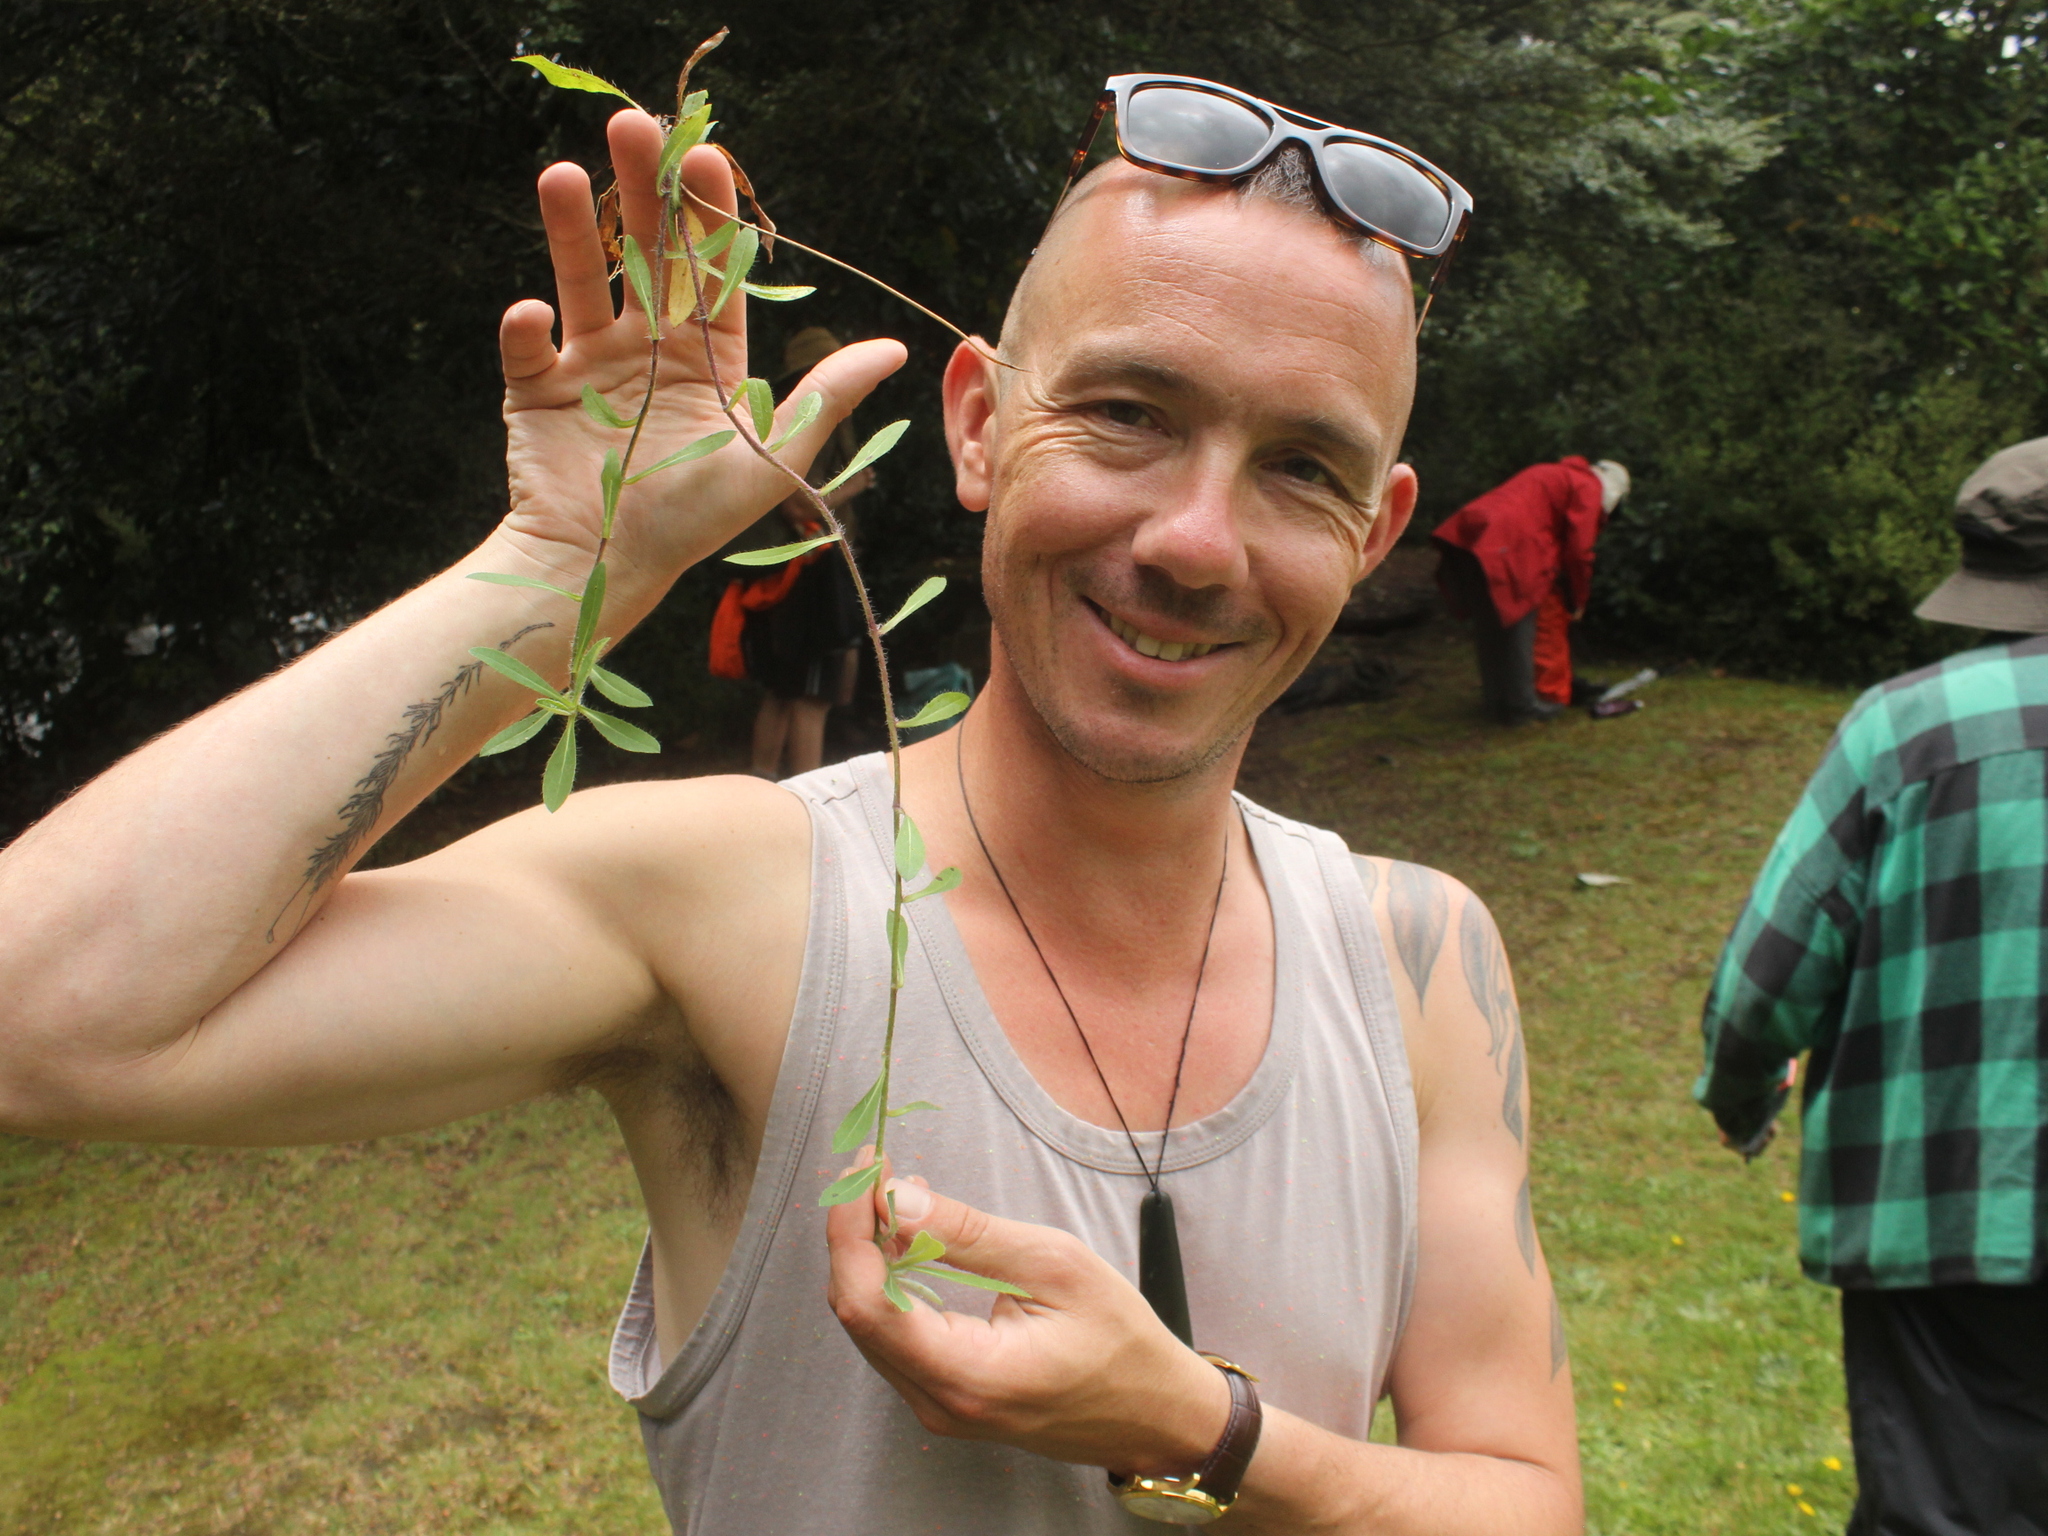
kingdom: Plantae
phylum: Tracheophyta
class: Magnoliopsida
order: Asterales
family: Asteraceae
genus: Pilosella
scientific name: Pilosella officinarum
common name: Mouse-ear hawkweed
